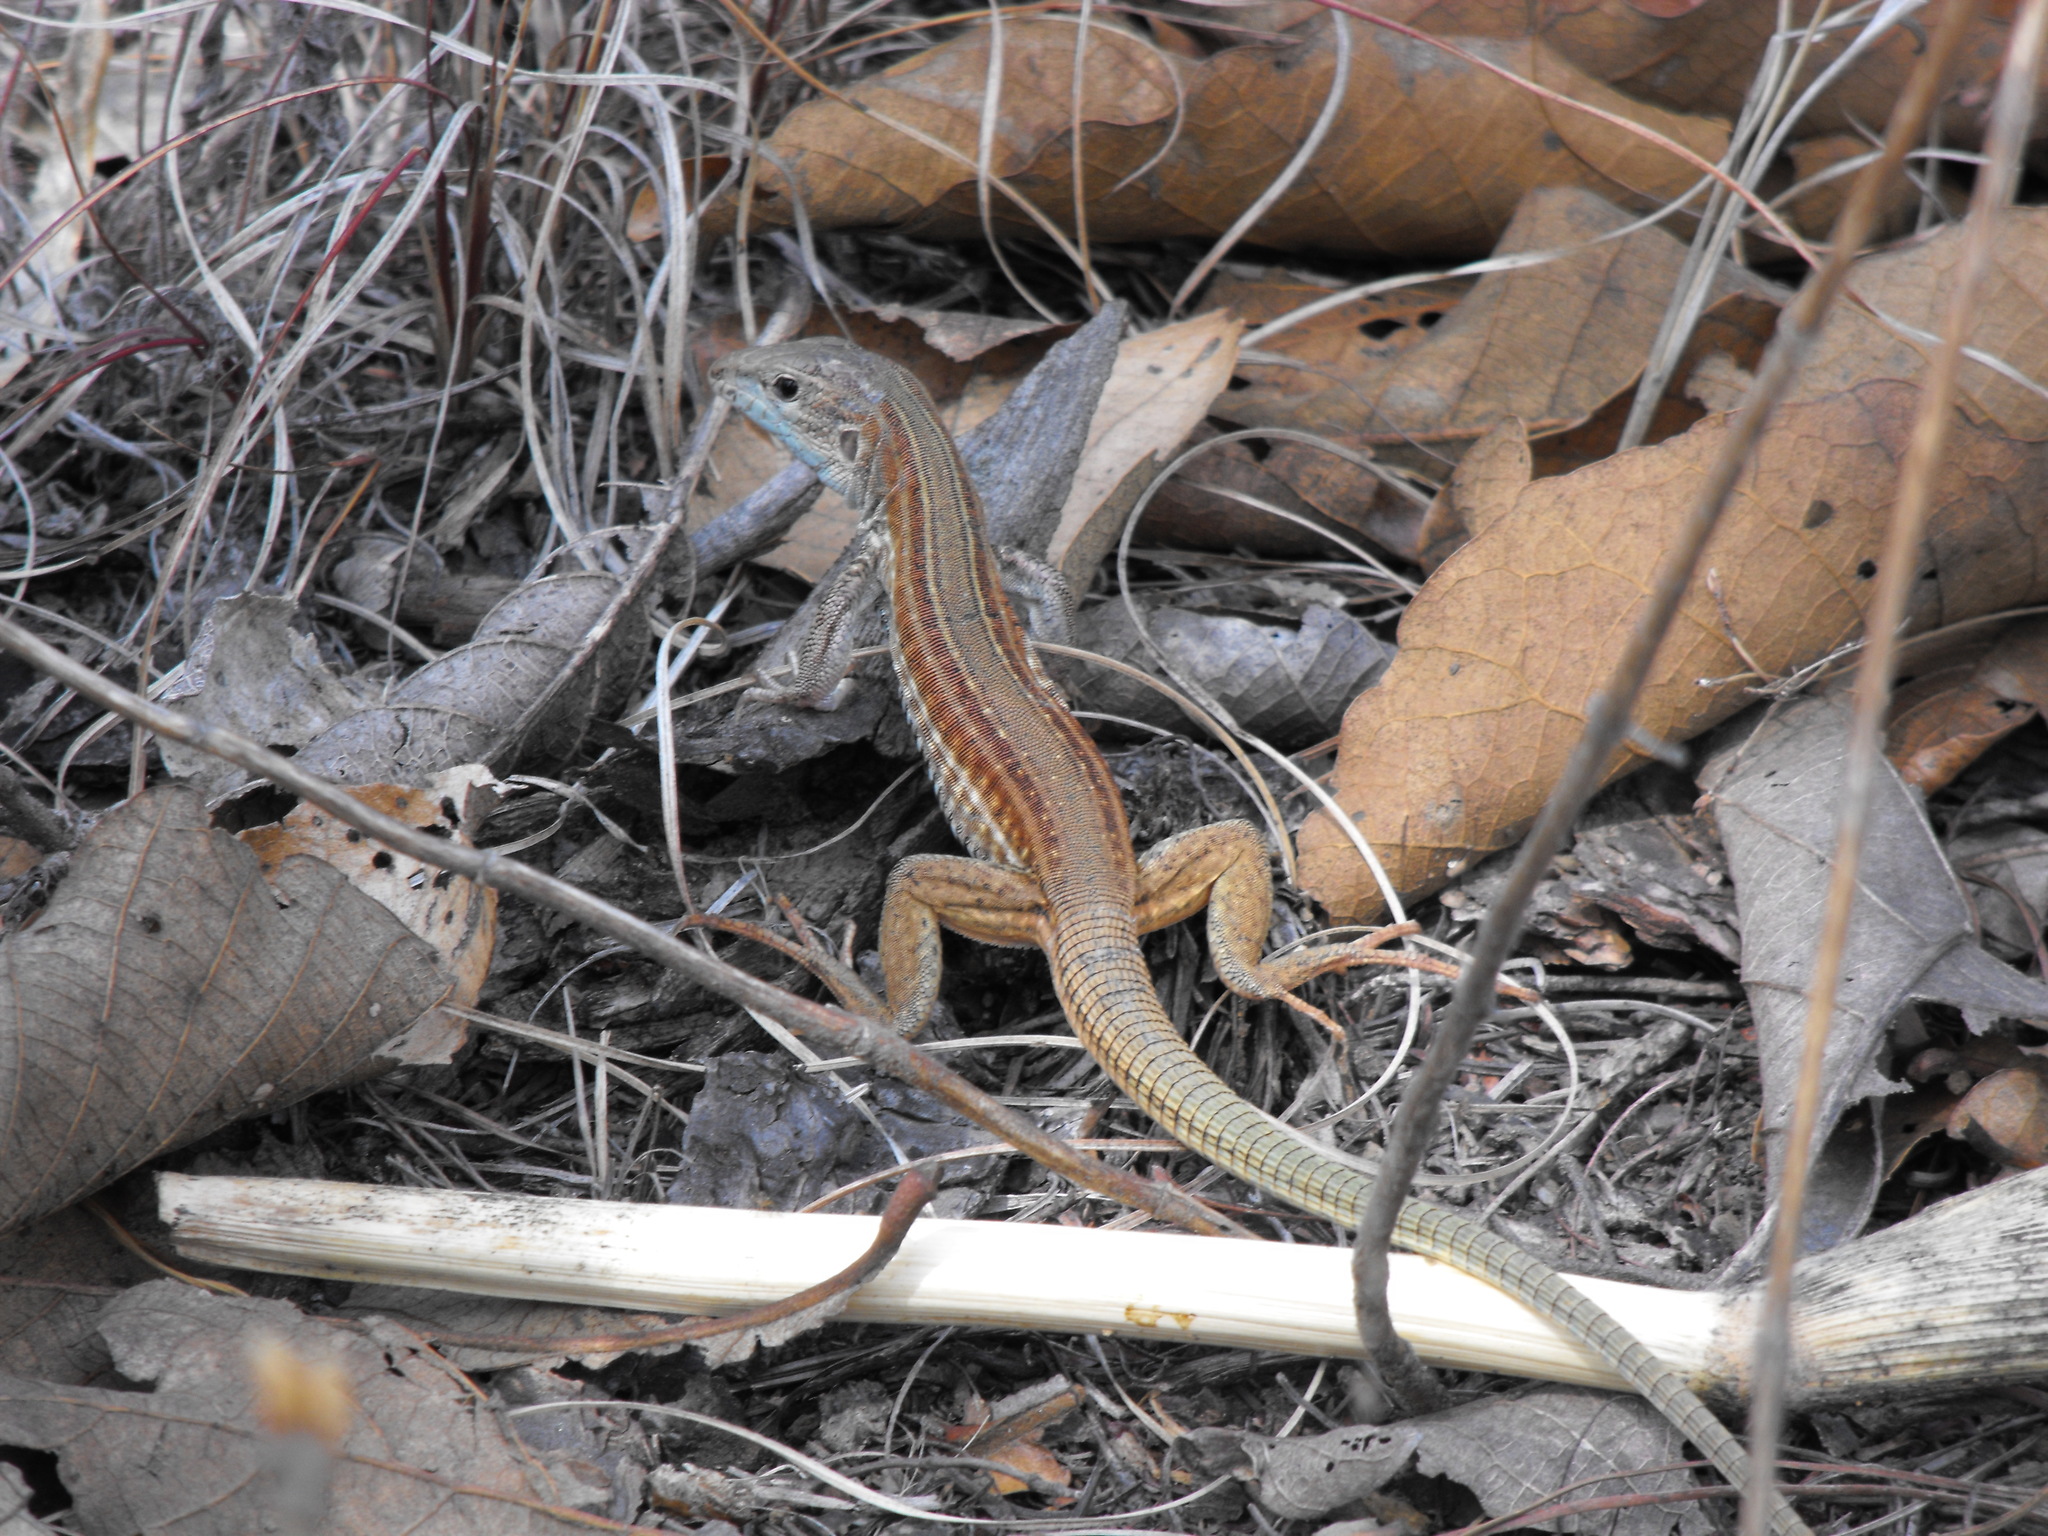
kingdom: Animalia
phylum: Chordata
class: Squamata
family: Teiidae
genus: Aspidoscelis
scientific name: Aspidoscelis mexicanus
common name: Mexican whiptail
